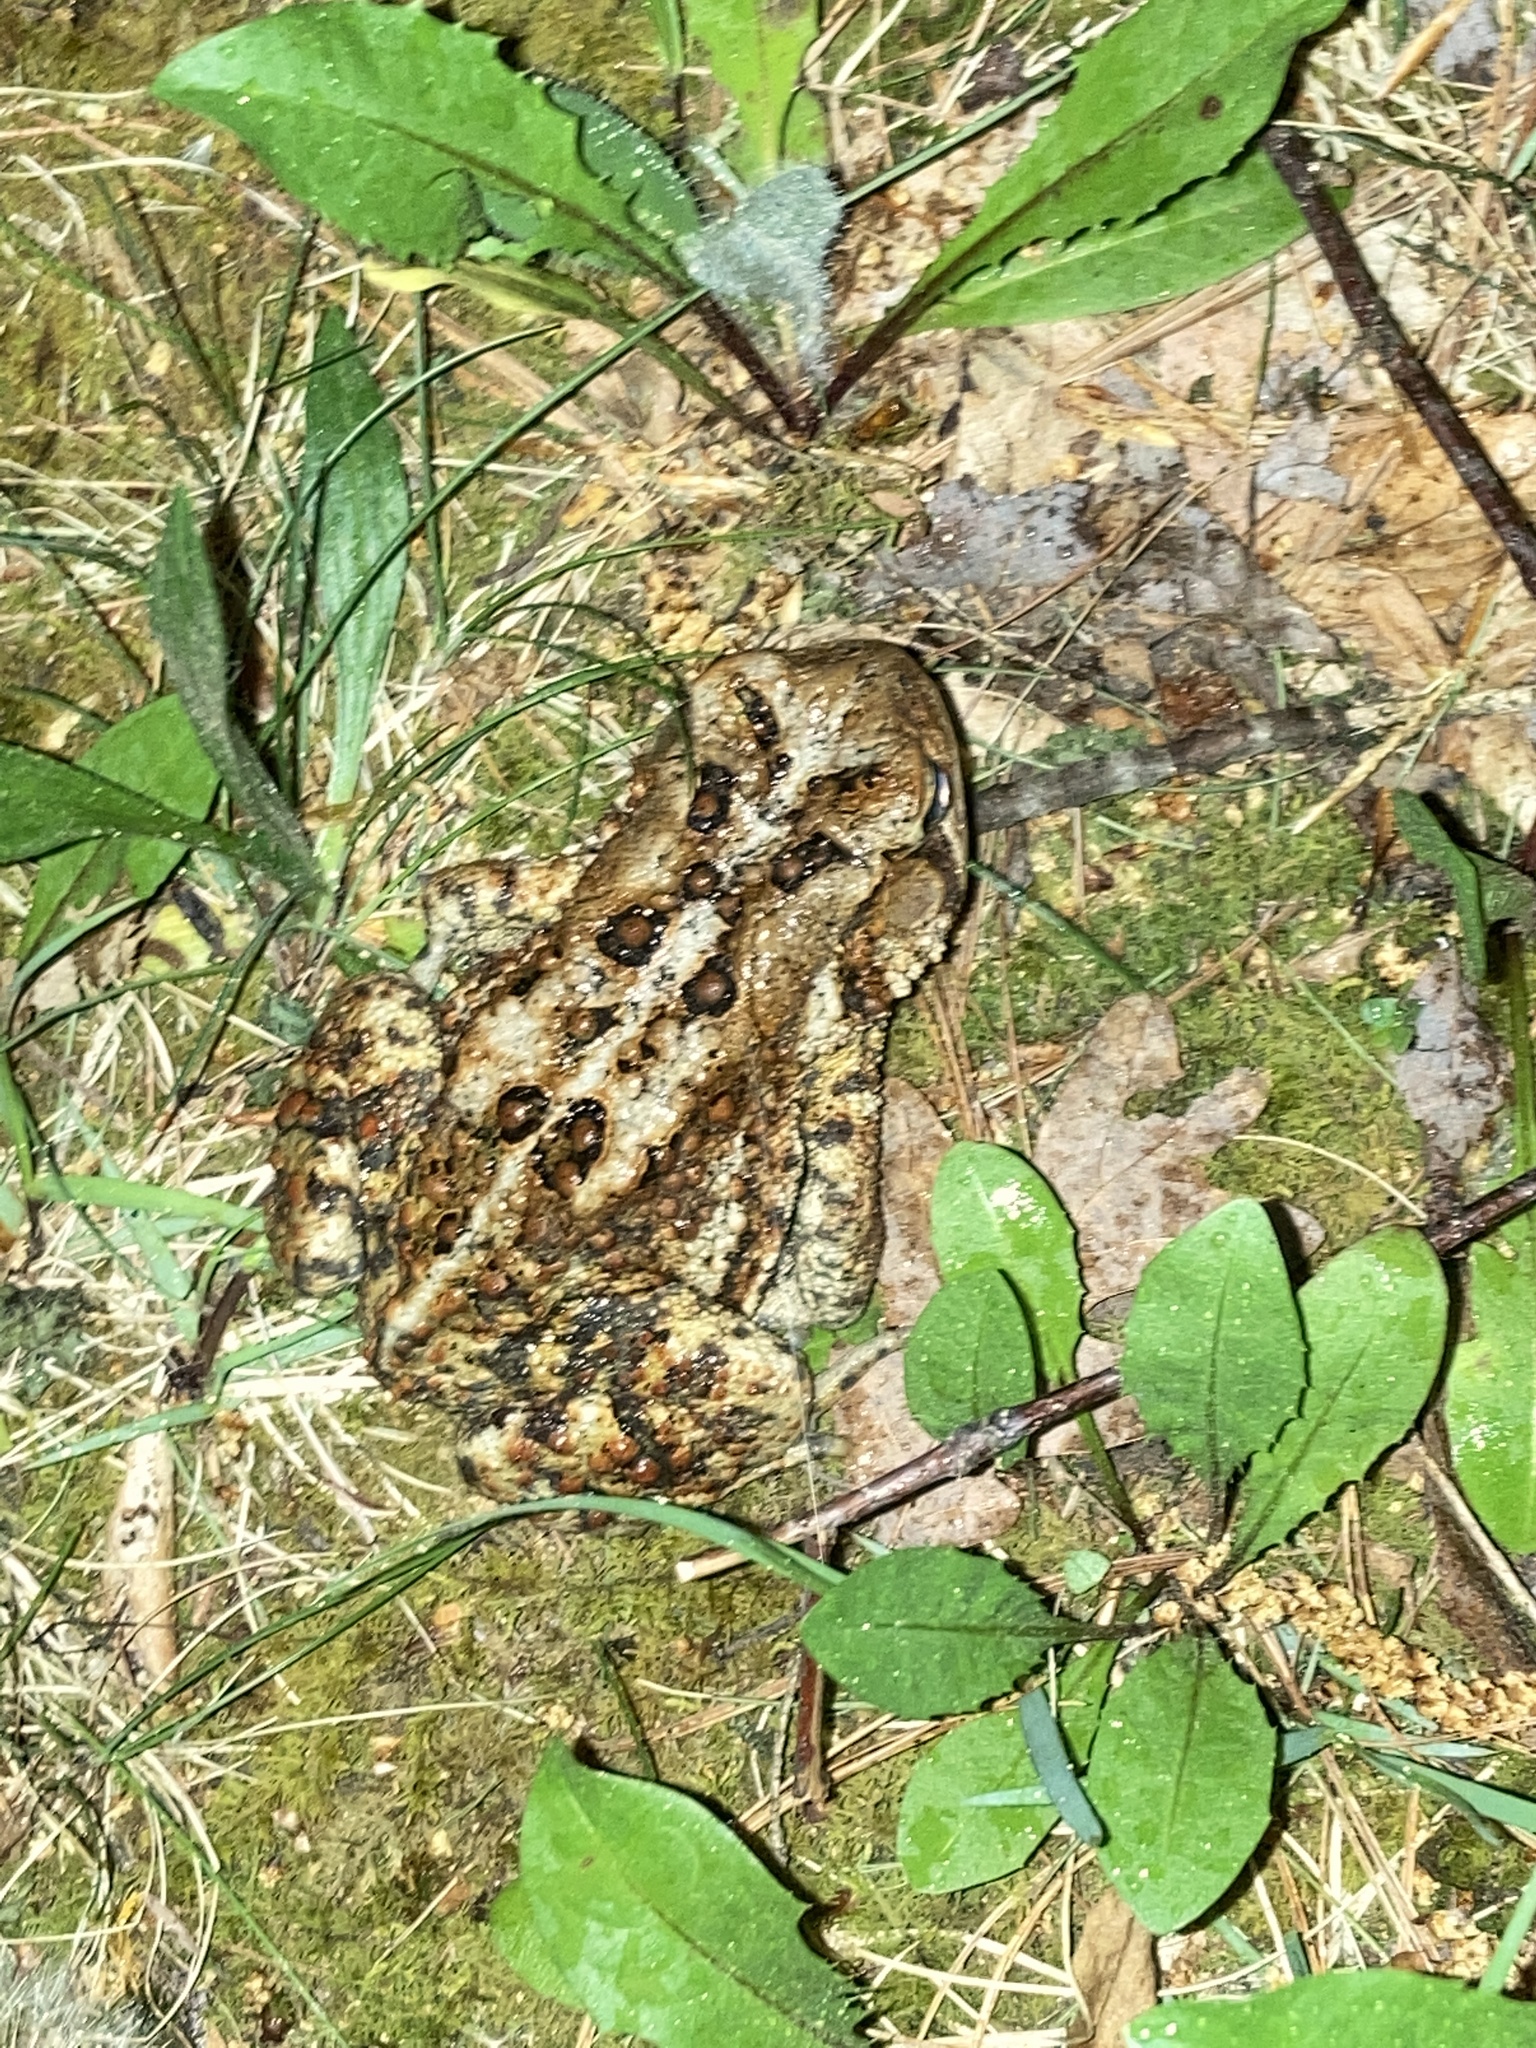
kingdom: Animalia
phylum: Chordata
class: Amphibia
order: Anura
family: Bufonidae
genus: Anaxyrus
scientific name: Anaxyrus americanus
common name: American toad
